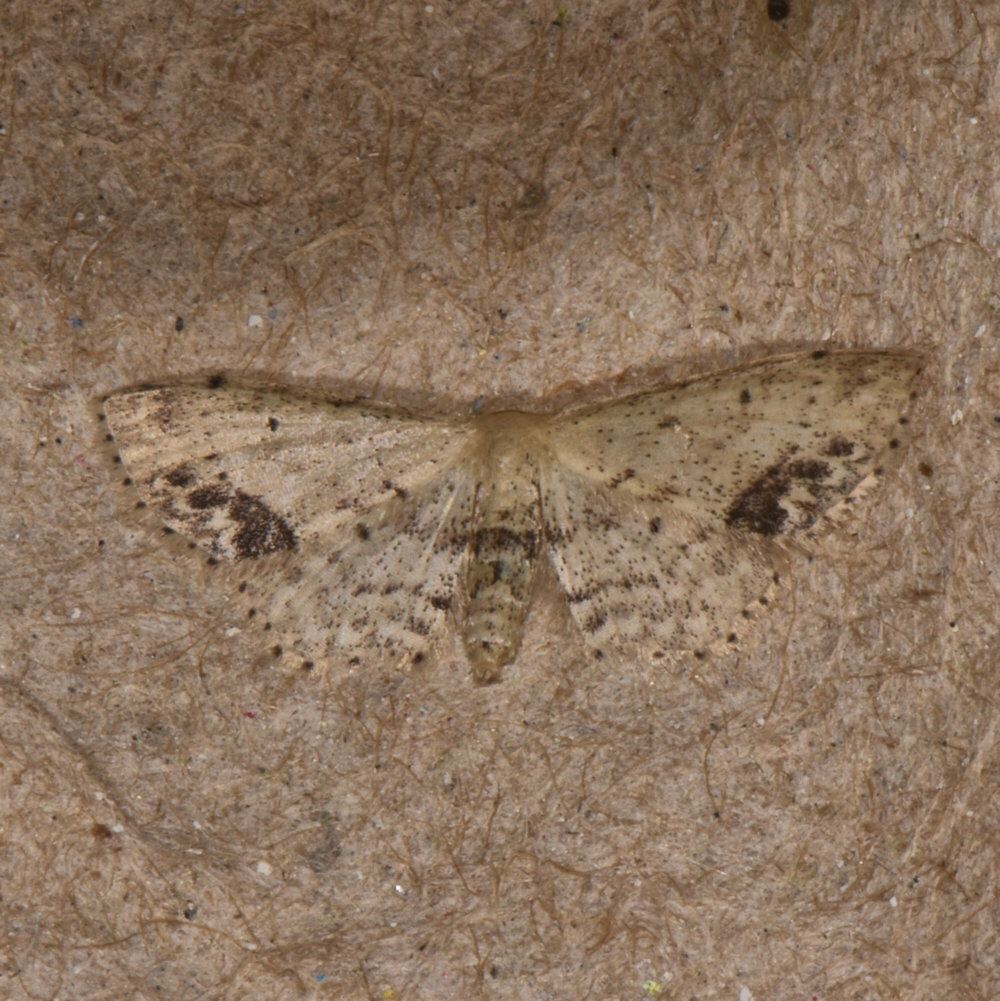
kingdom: Animalia
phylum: Arthropoda
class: Insecta
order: Lepidoptera
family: Geometridae
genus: Idaea
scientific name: Idaea dimidiata
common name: Single-dotted wave
